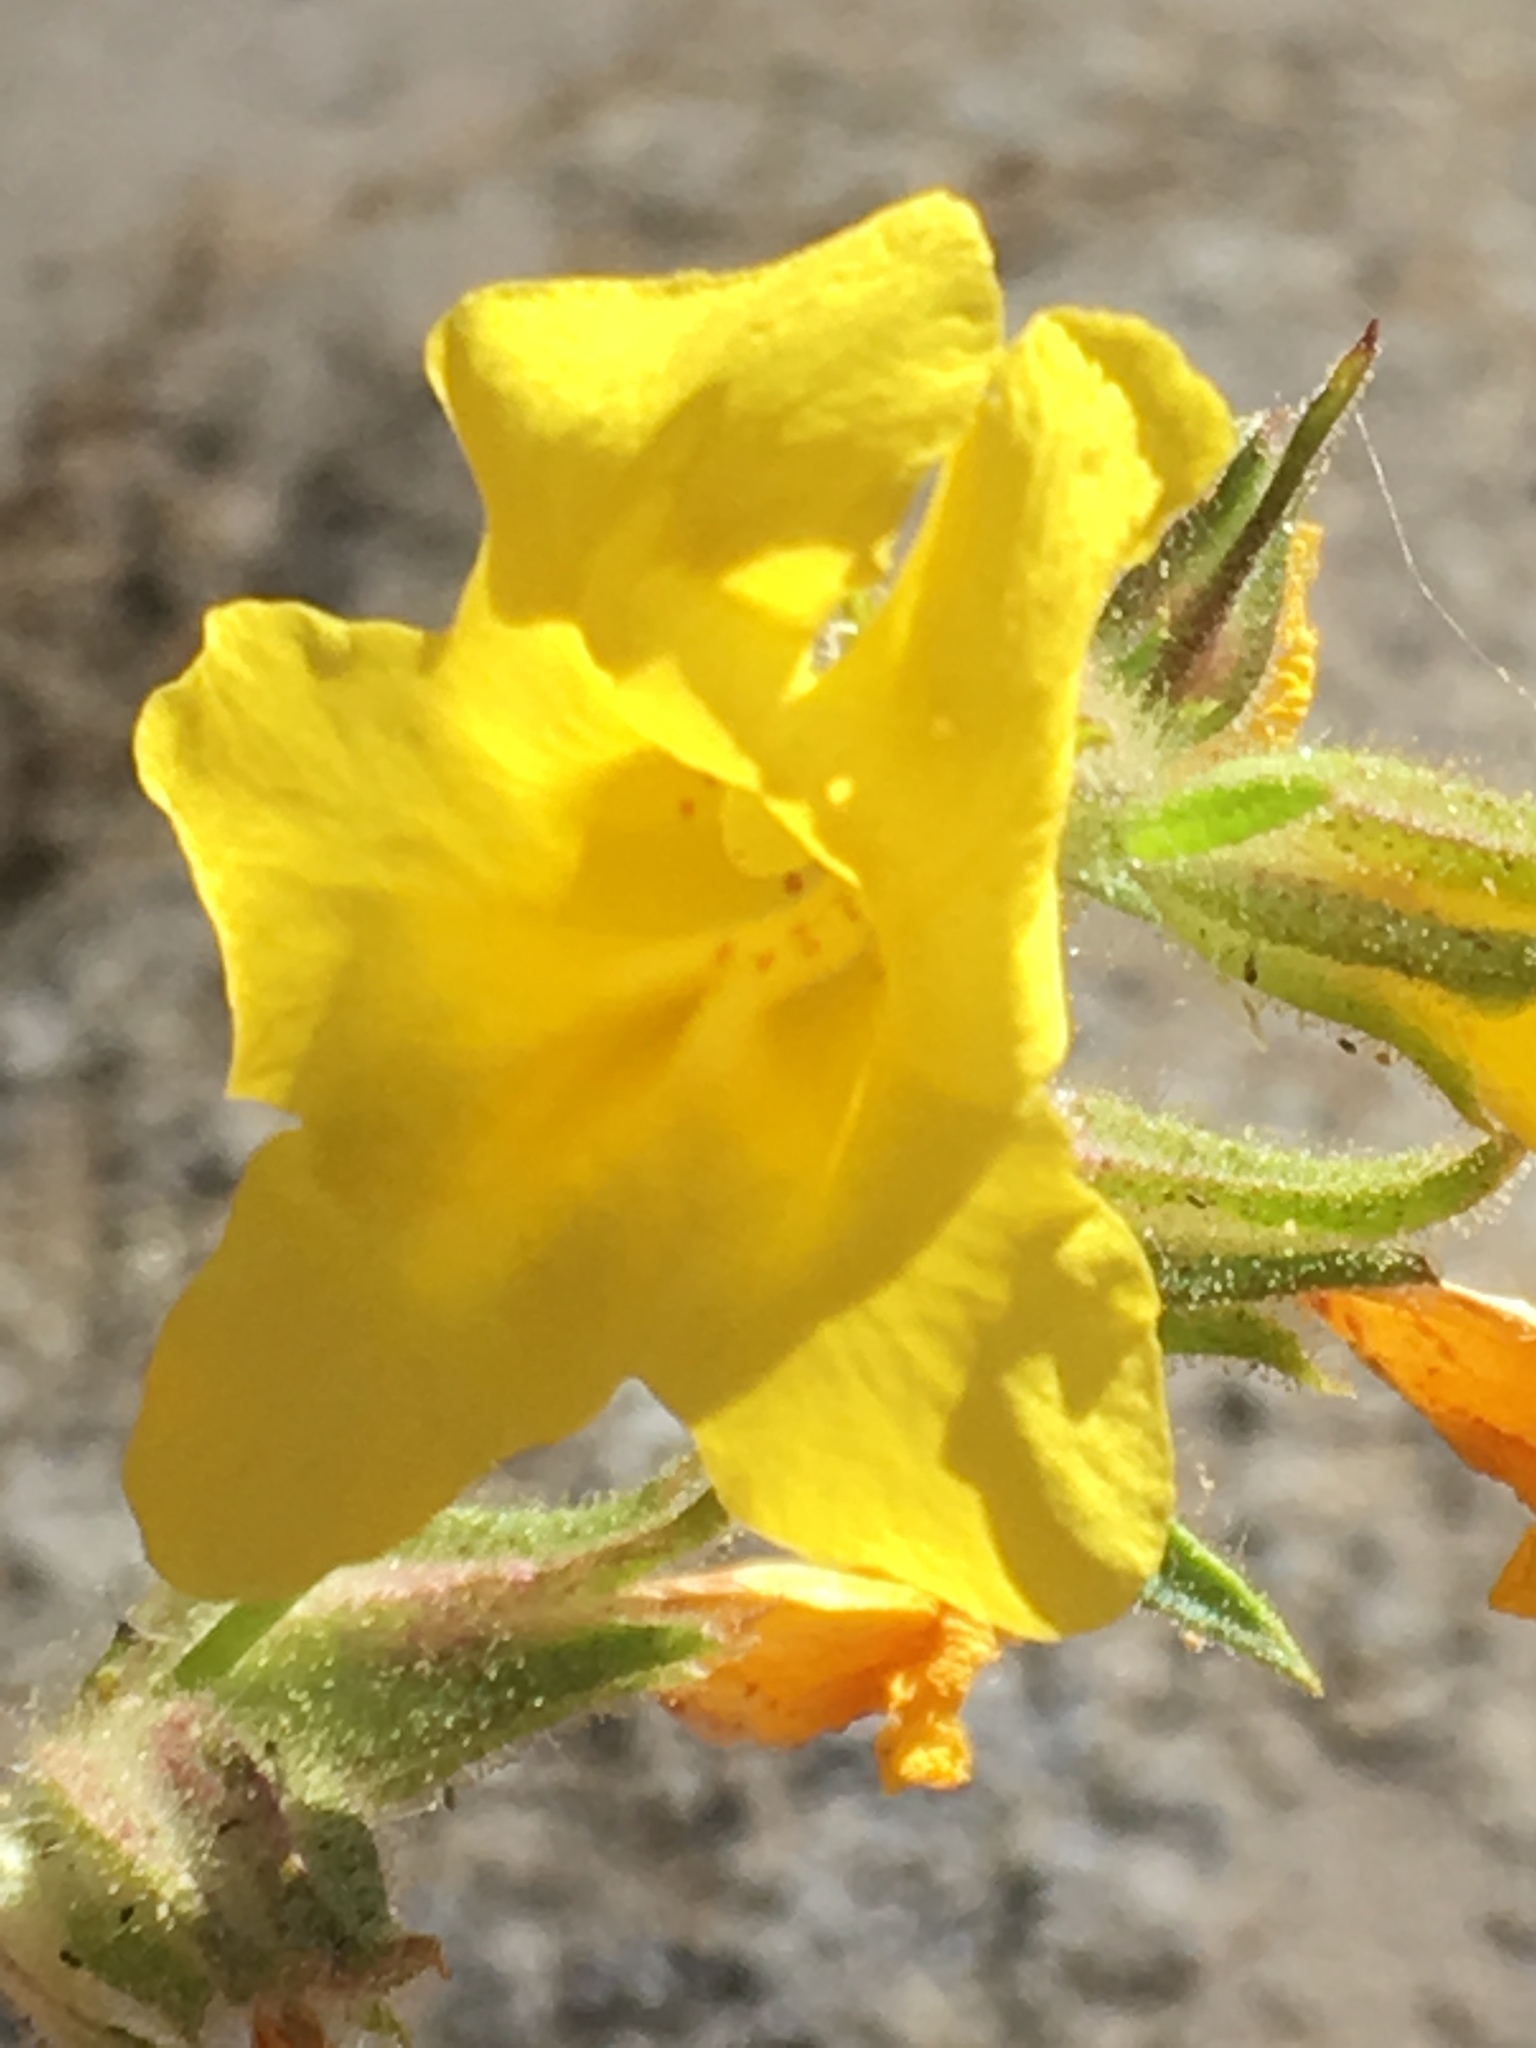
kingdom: Plantae
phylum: Tracheophyta
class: Magnoliopsida
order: Lamiales
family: Phrymaceae
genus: Diplacus
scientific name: Diplacus brevipes
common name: Wide-throat yellow monkey-flower
